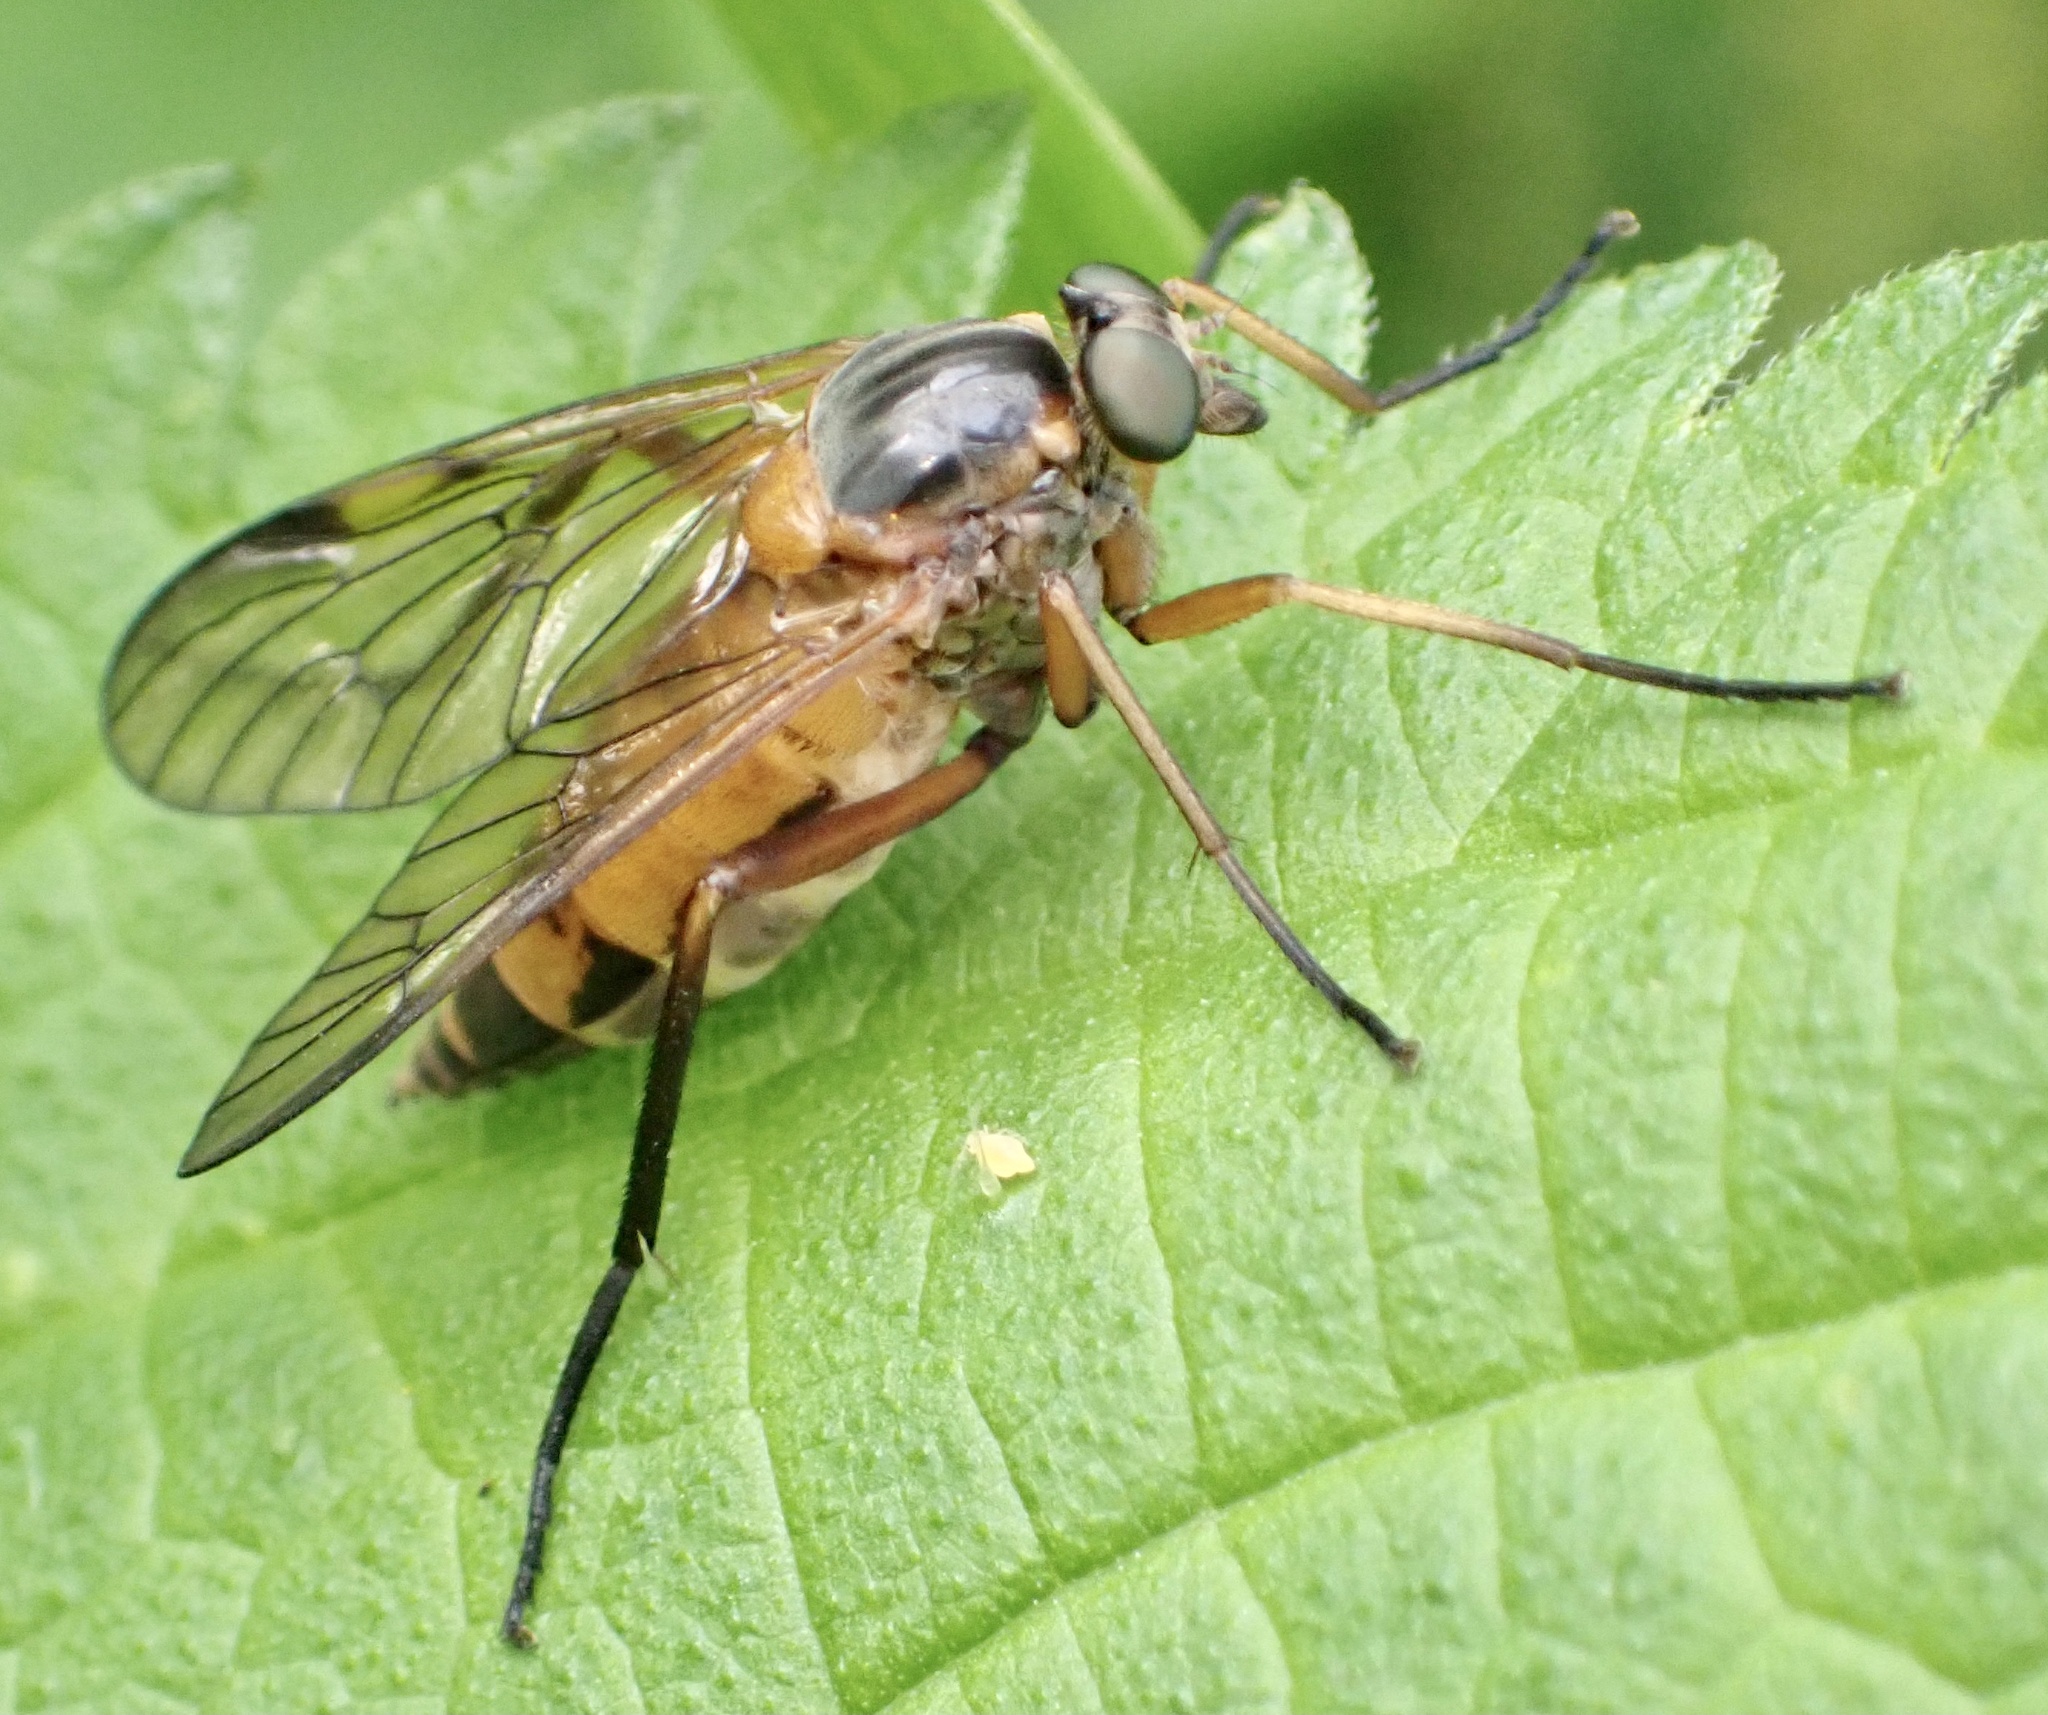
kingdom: Animalia
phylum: Arthropoda
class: Insecta
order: Diptera
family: Rhagionidae
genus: Rhagio
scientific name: Rhagio immaculatus
